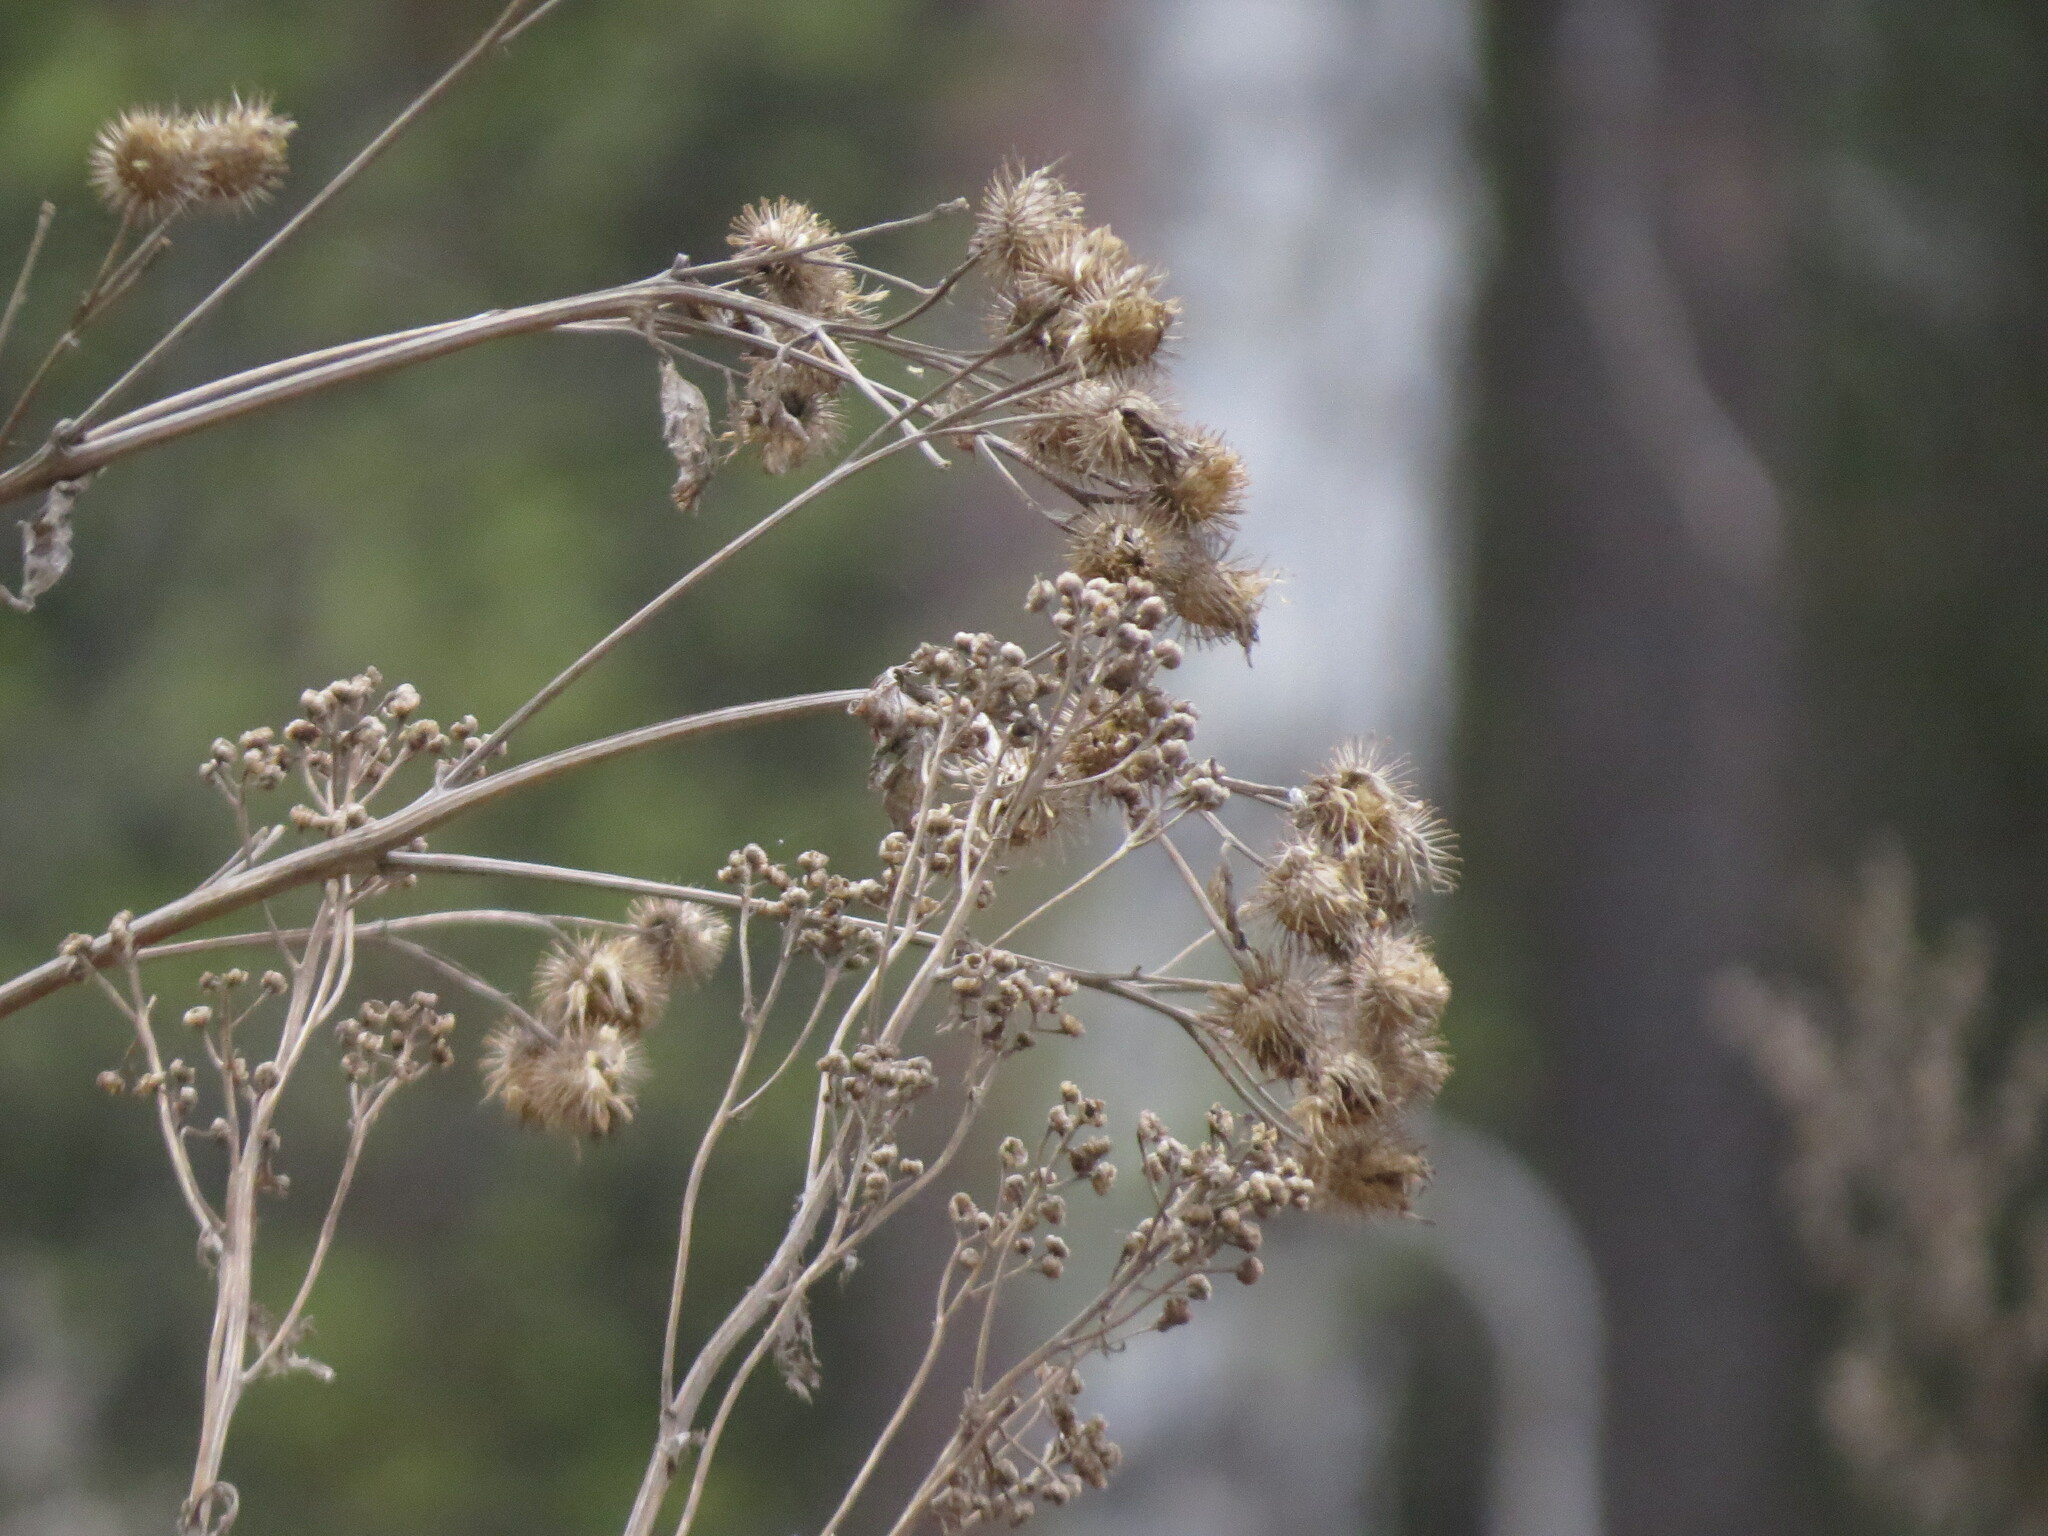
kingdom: Plantae
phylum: Tracheophyta
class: Magnoliopsida
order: Asterales
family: Asteraceae
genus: Arctium
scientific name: Arctium tomentosum
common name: Woolly burdock
